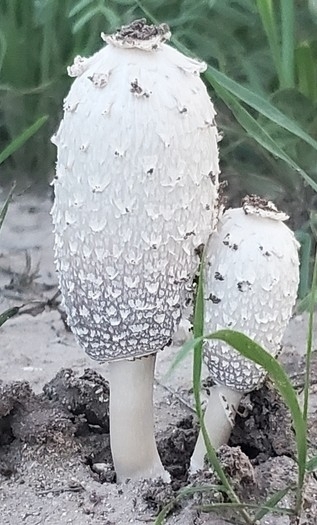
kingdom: Fungi
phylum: Basidiomycota
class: Agaricomycetes
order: Agaricales
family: Agaricaceae
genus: Coprinus
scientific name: Coprinus comatus
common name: Lawyer's wig
